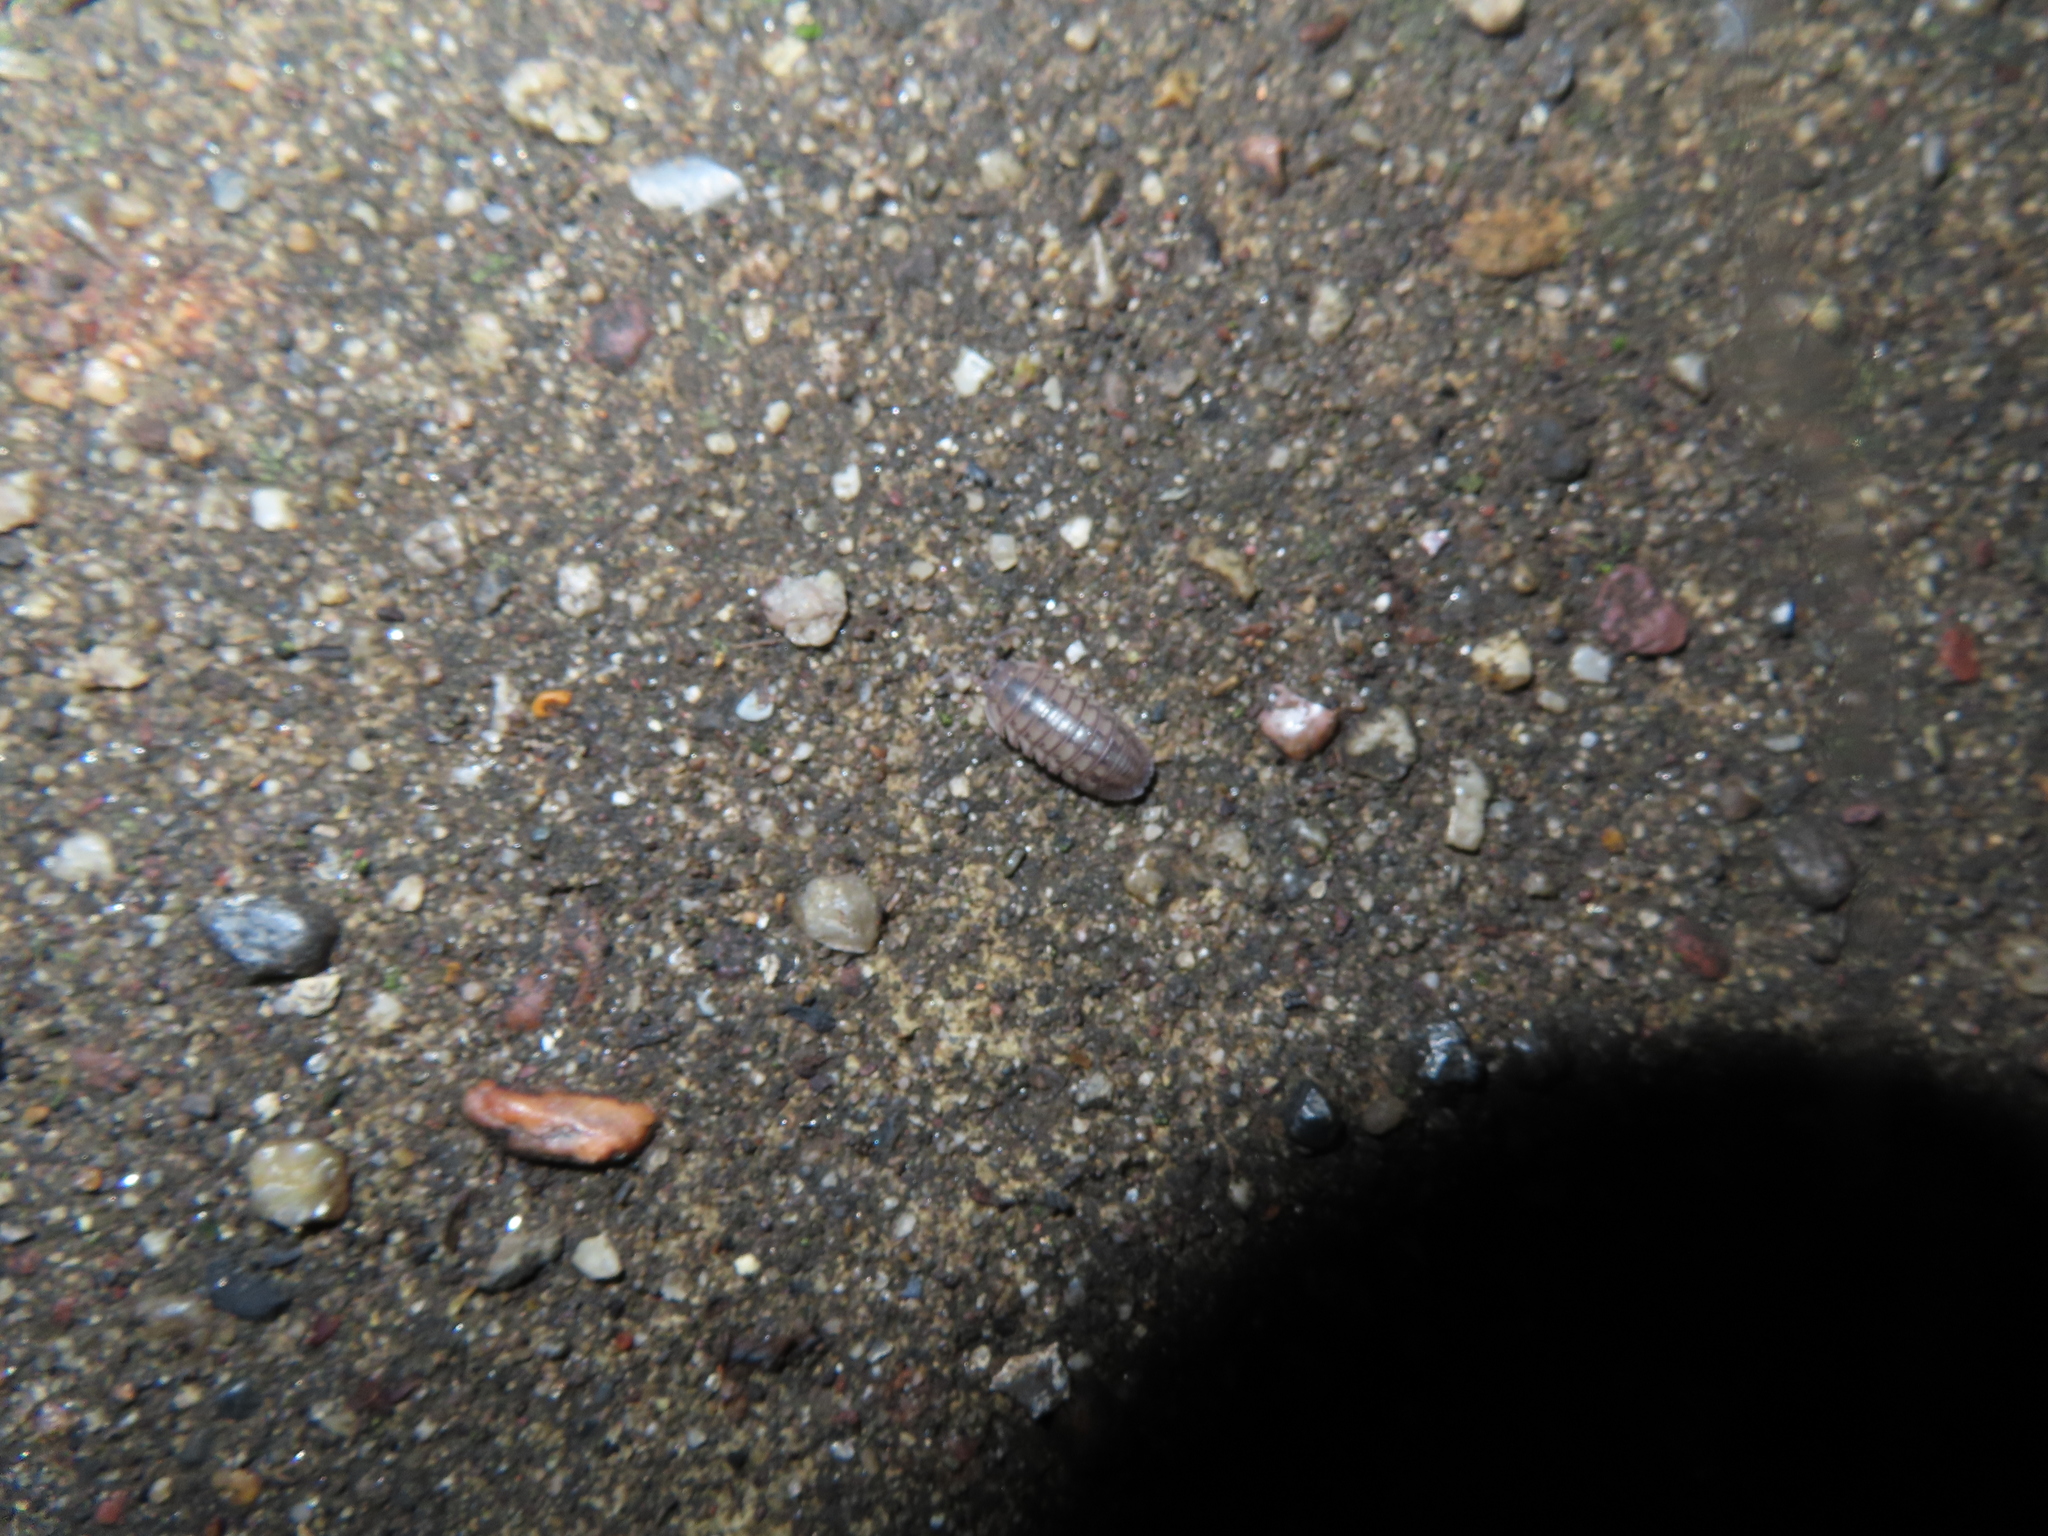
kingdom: Animalia
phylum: Arthropoda
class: Malacostraca
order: Isopoda
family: Armadillidiidae
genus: Armadillidium
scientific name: Armadillidium nasatum
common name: Isopod
